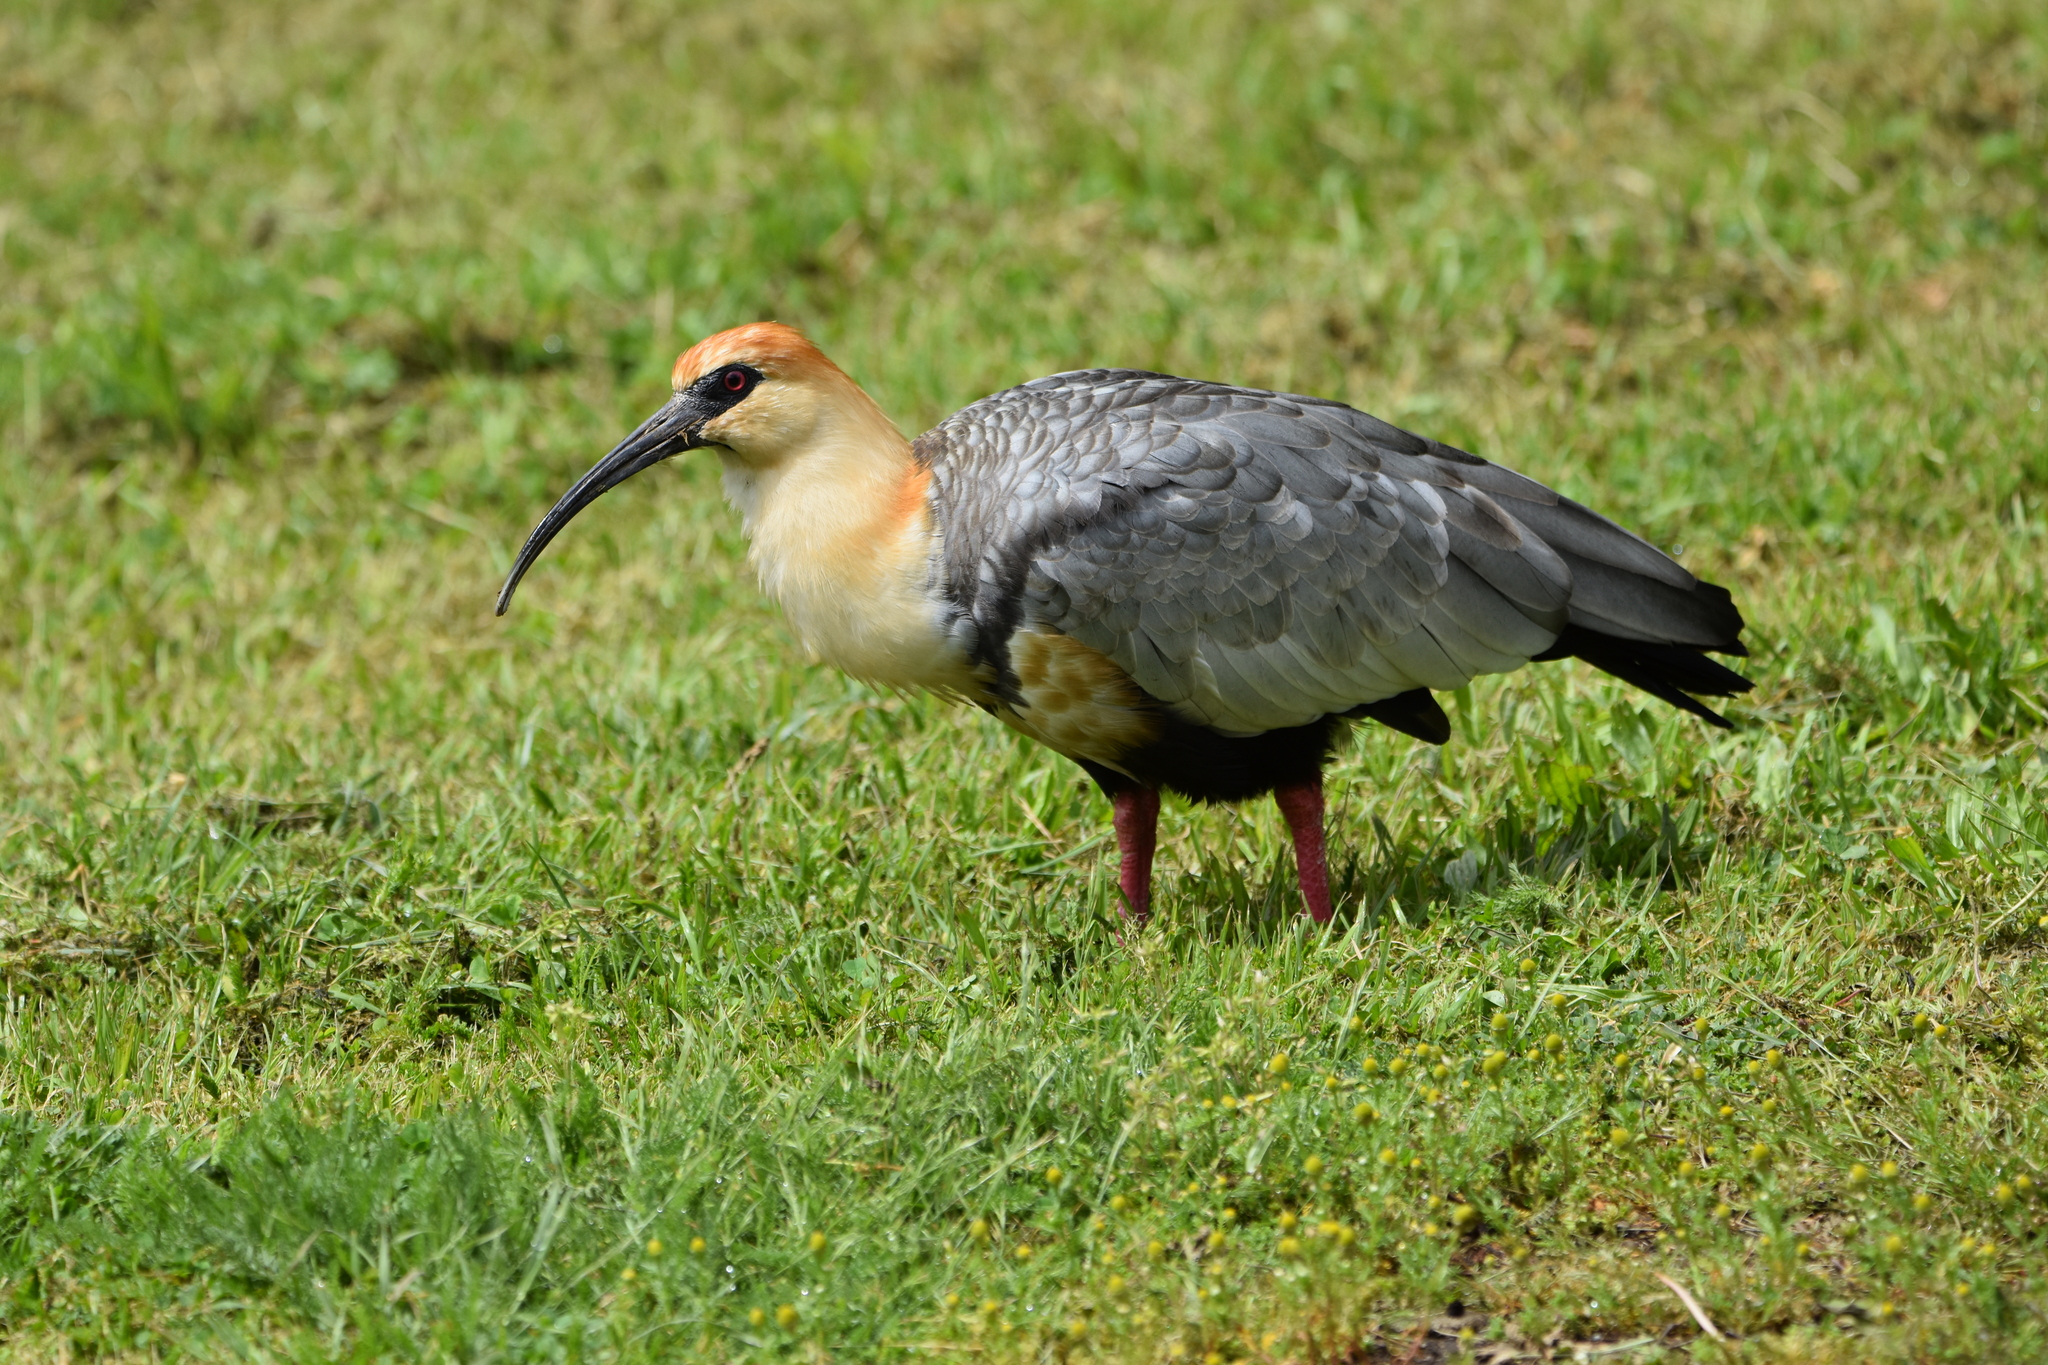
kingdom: Animalia
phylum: Chordata
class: Aves
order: Pelecaniformes
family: Threskiornithidae
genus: Theristicus
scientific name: Theristicus melanopis
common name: Black-faced ibis
